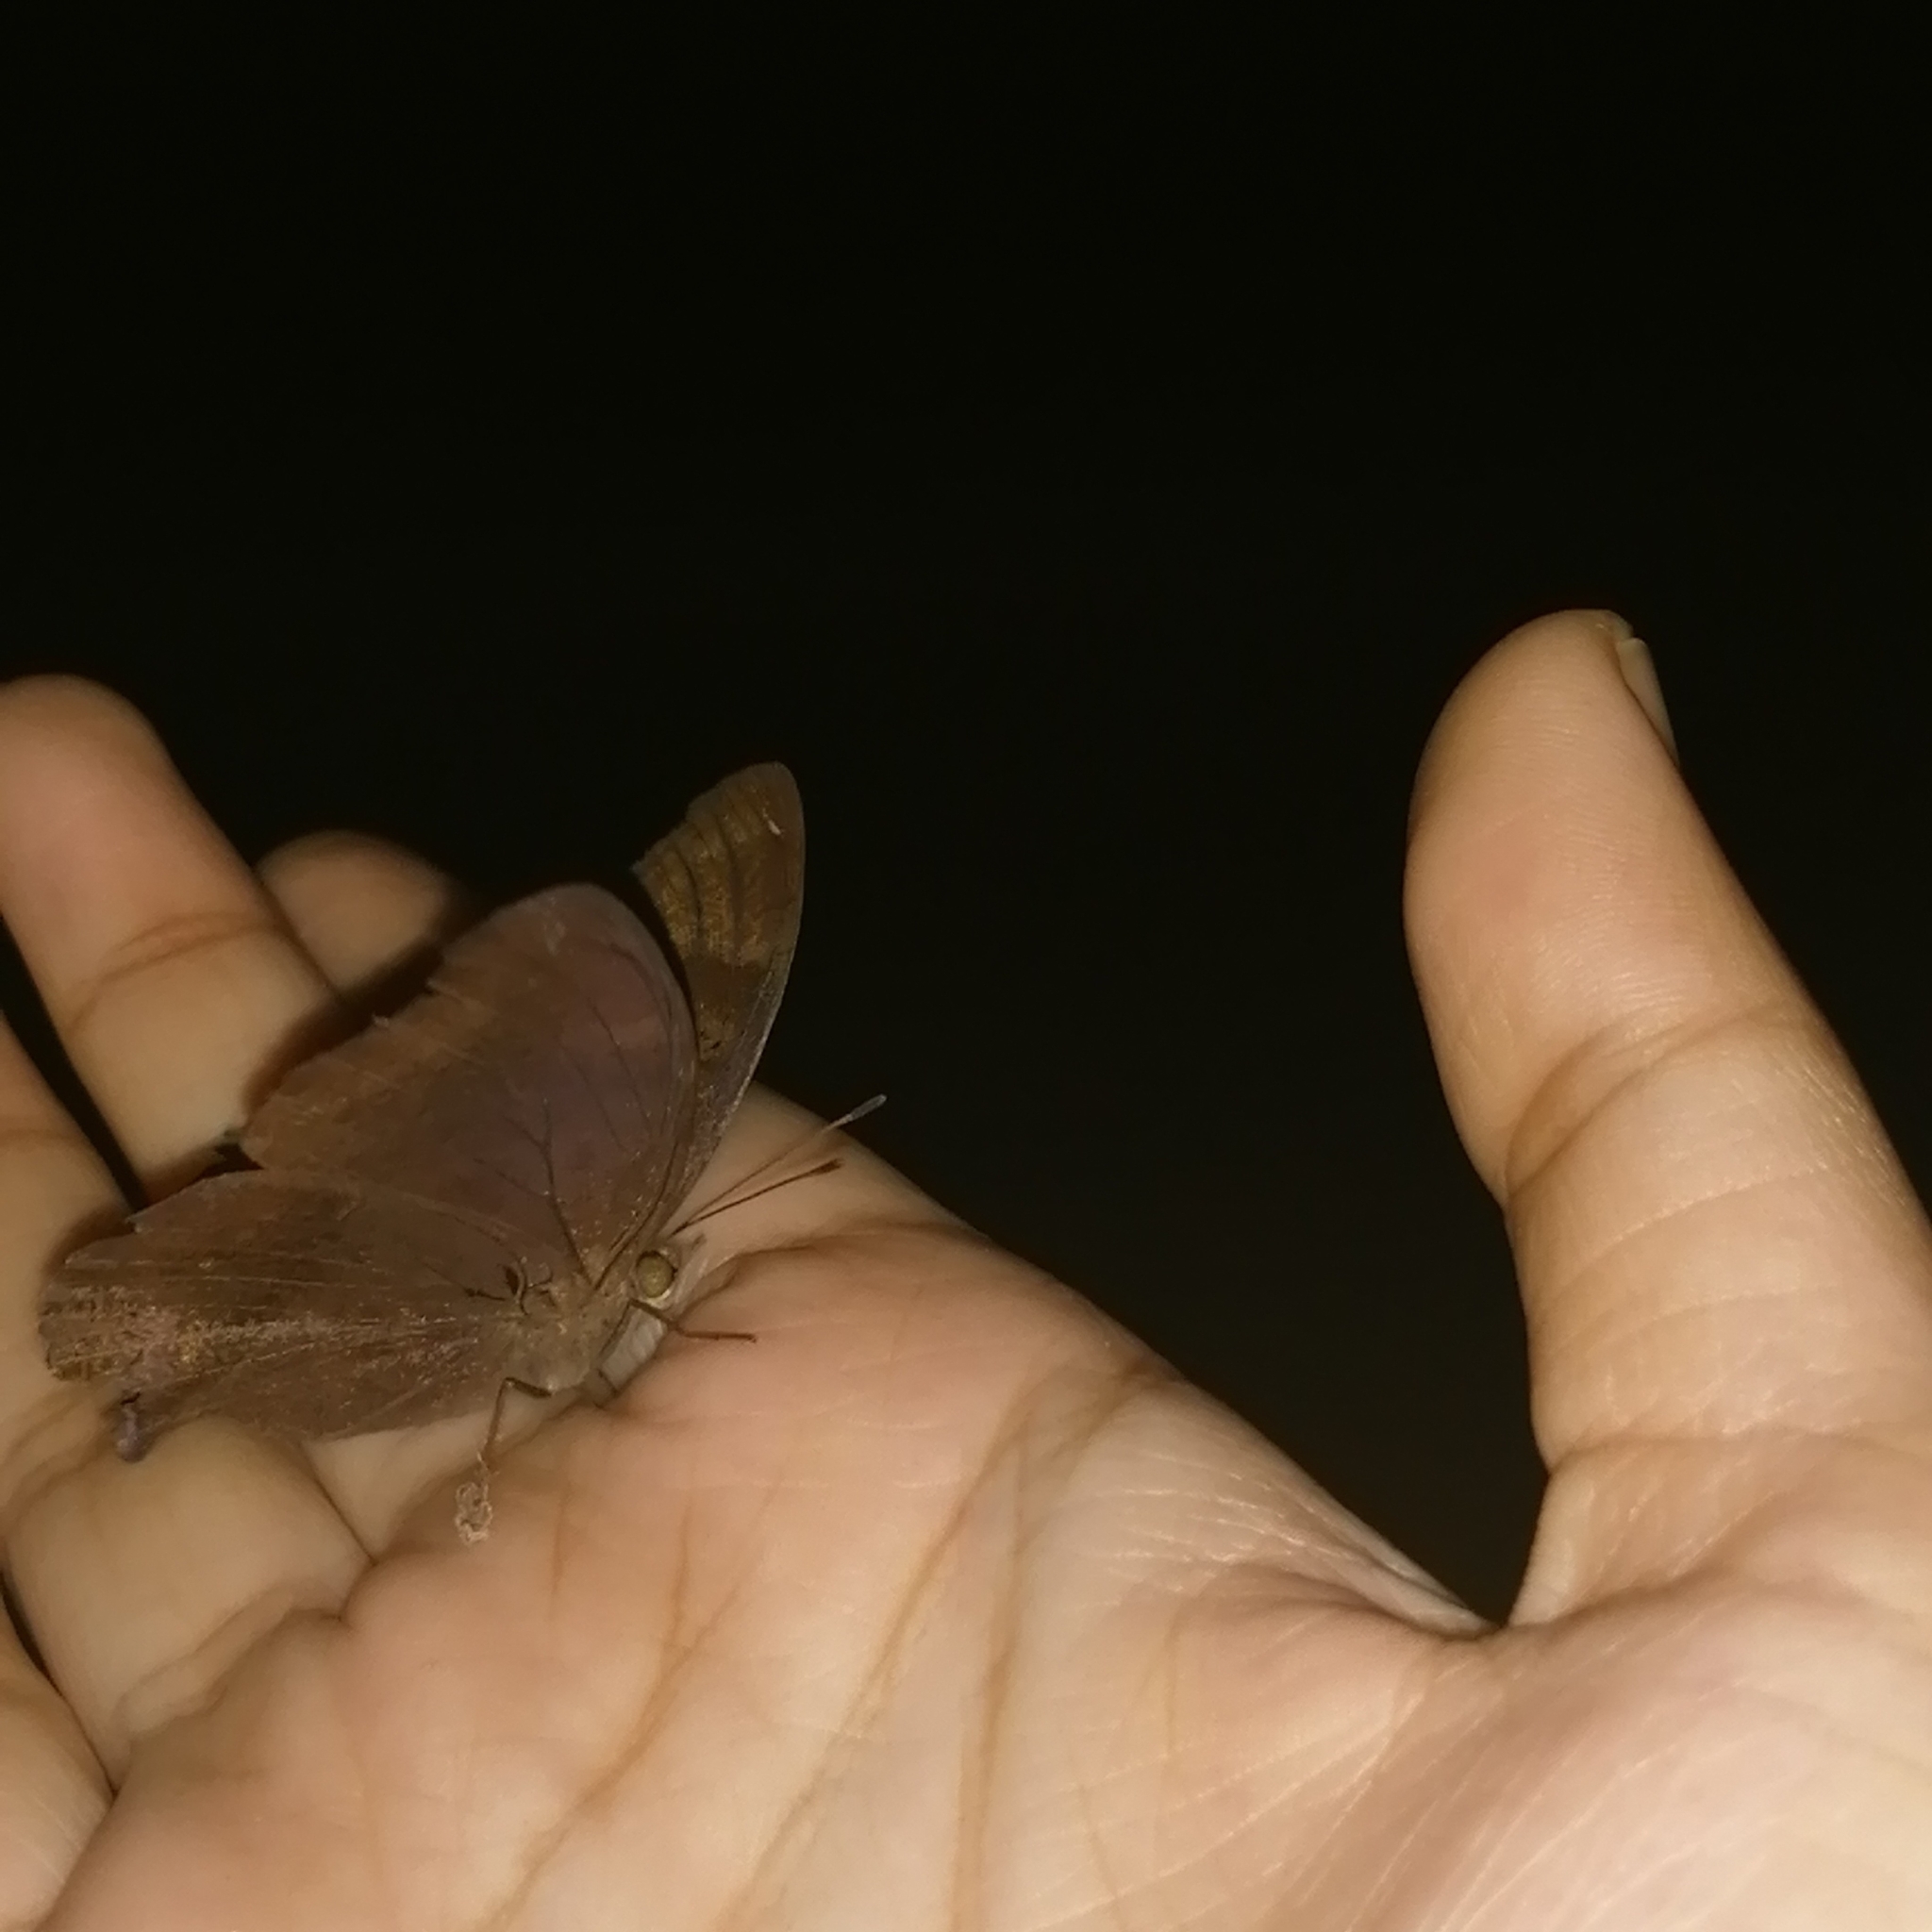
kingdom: Animalia
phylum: Arthropoda
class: Insecta
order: Lepidoptera
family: Nymphalidae
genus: Junonia
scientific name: Junonia iphita
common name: Chocolate pansy
